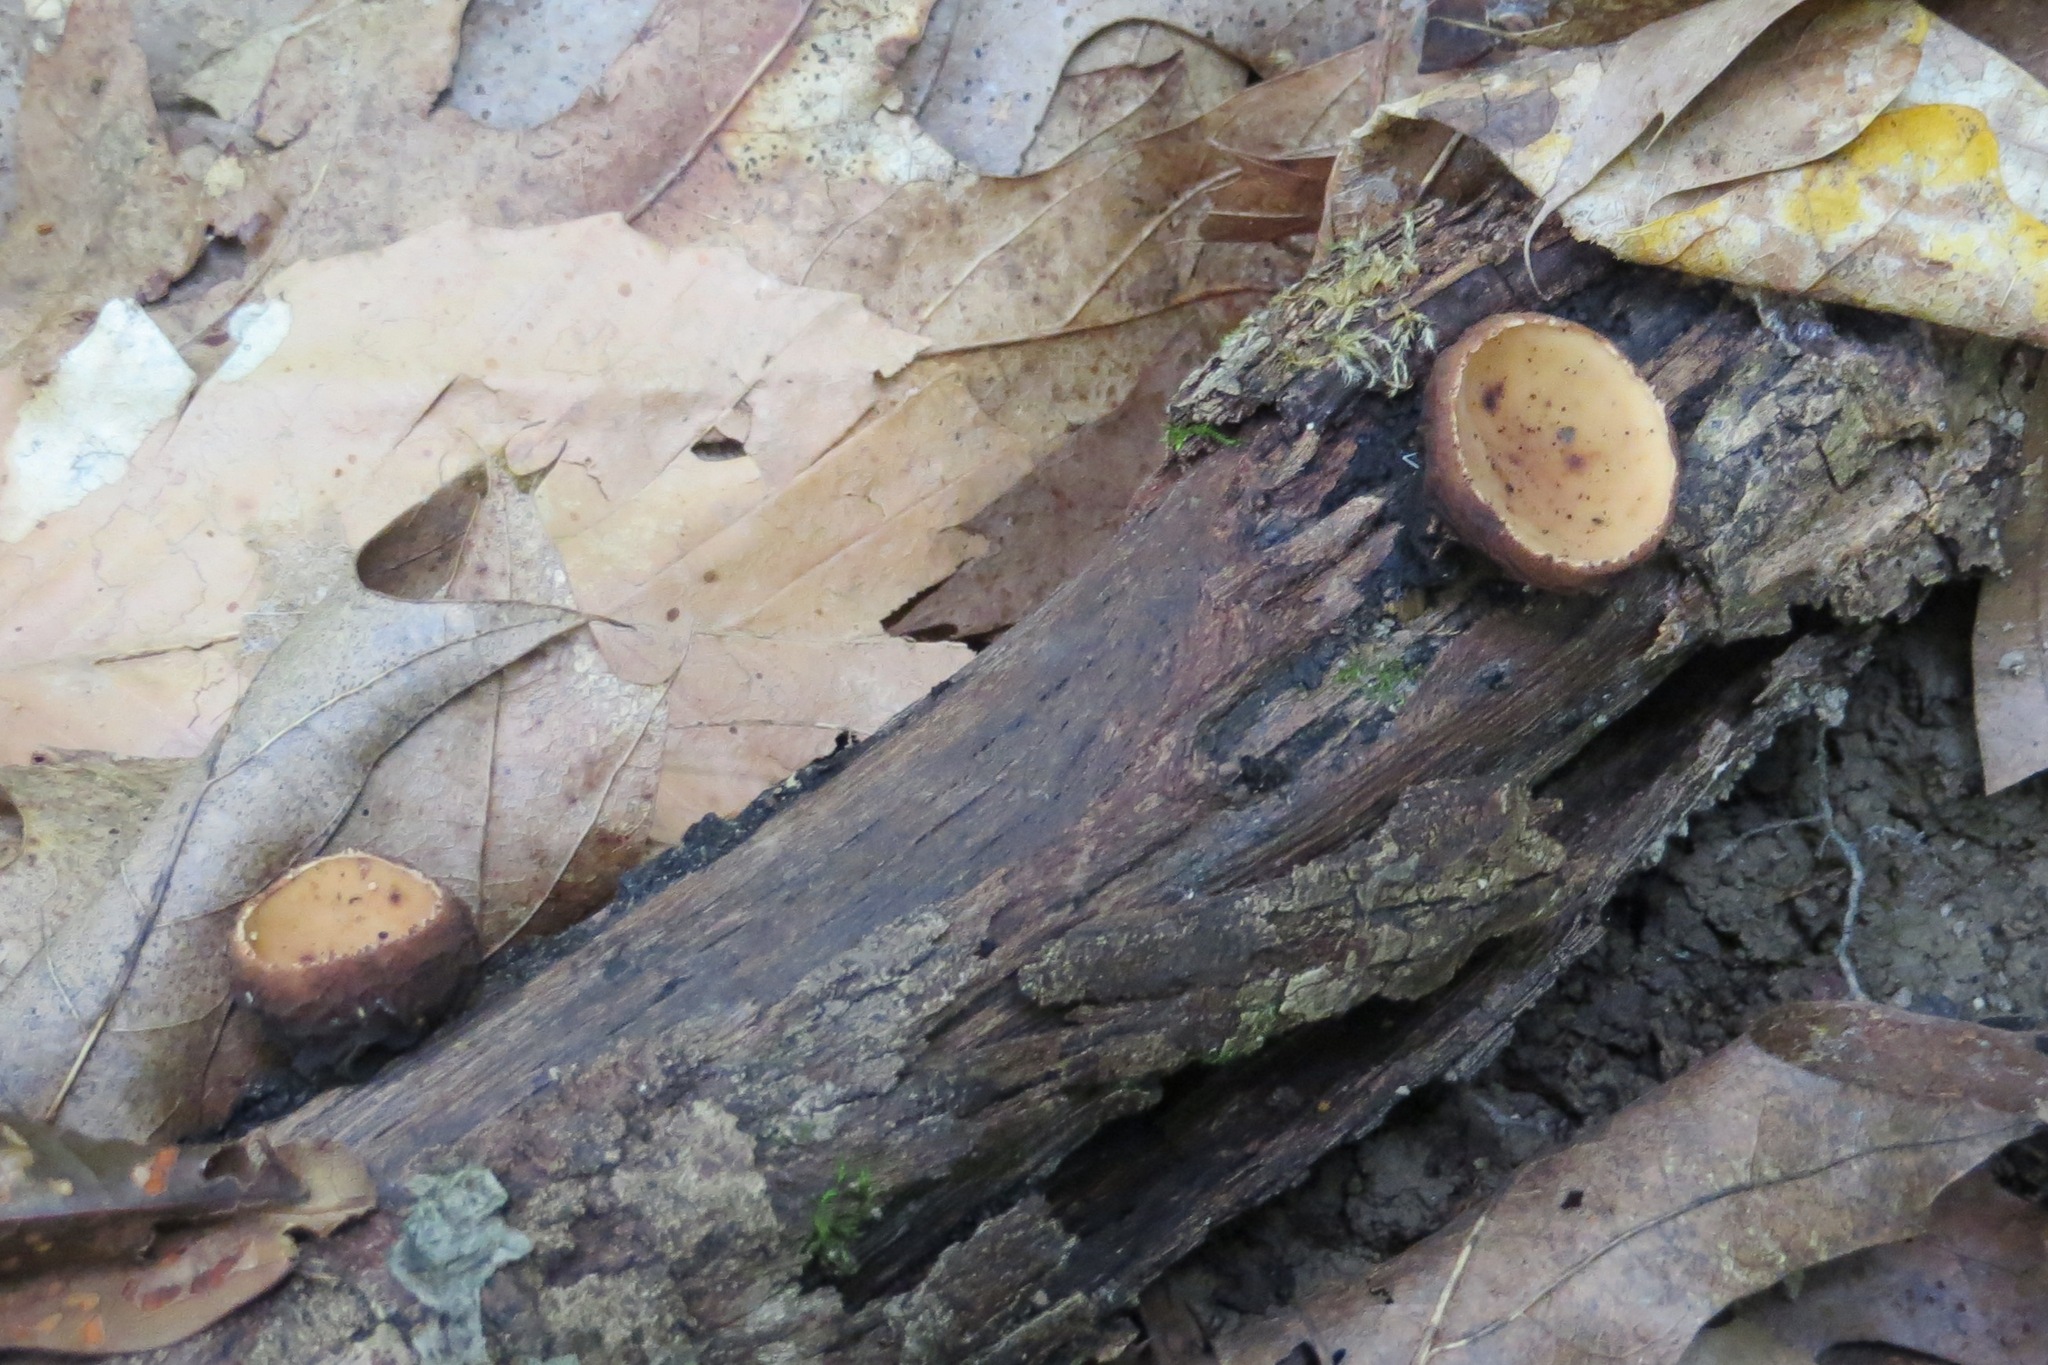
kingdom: Fungi
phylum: Ascomycota
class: Pezizomycetes
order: Pezizales
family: Sarcosomataceae
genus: Galiella
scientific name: Galiella rufa
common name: Hairy rubber cup
